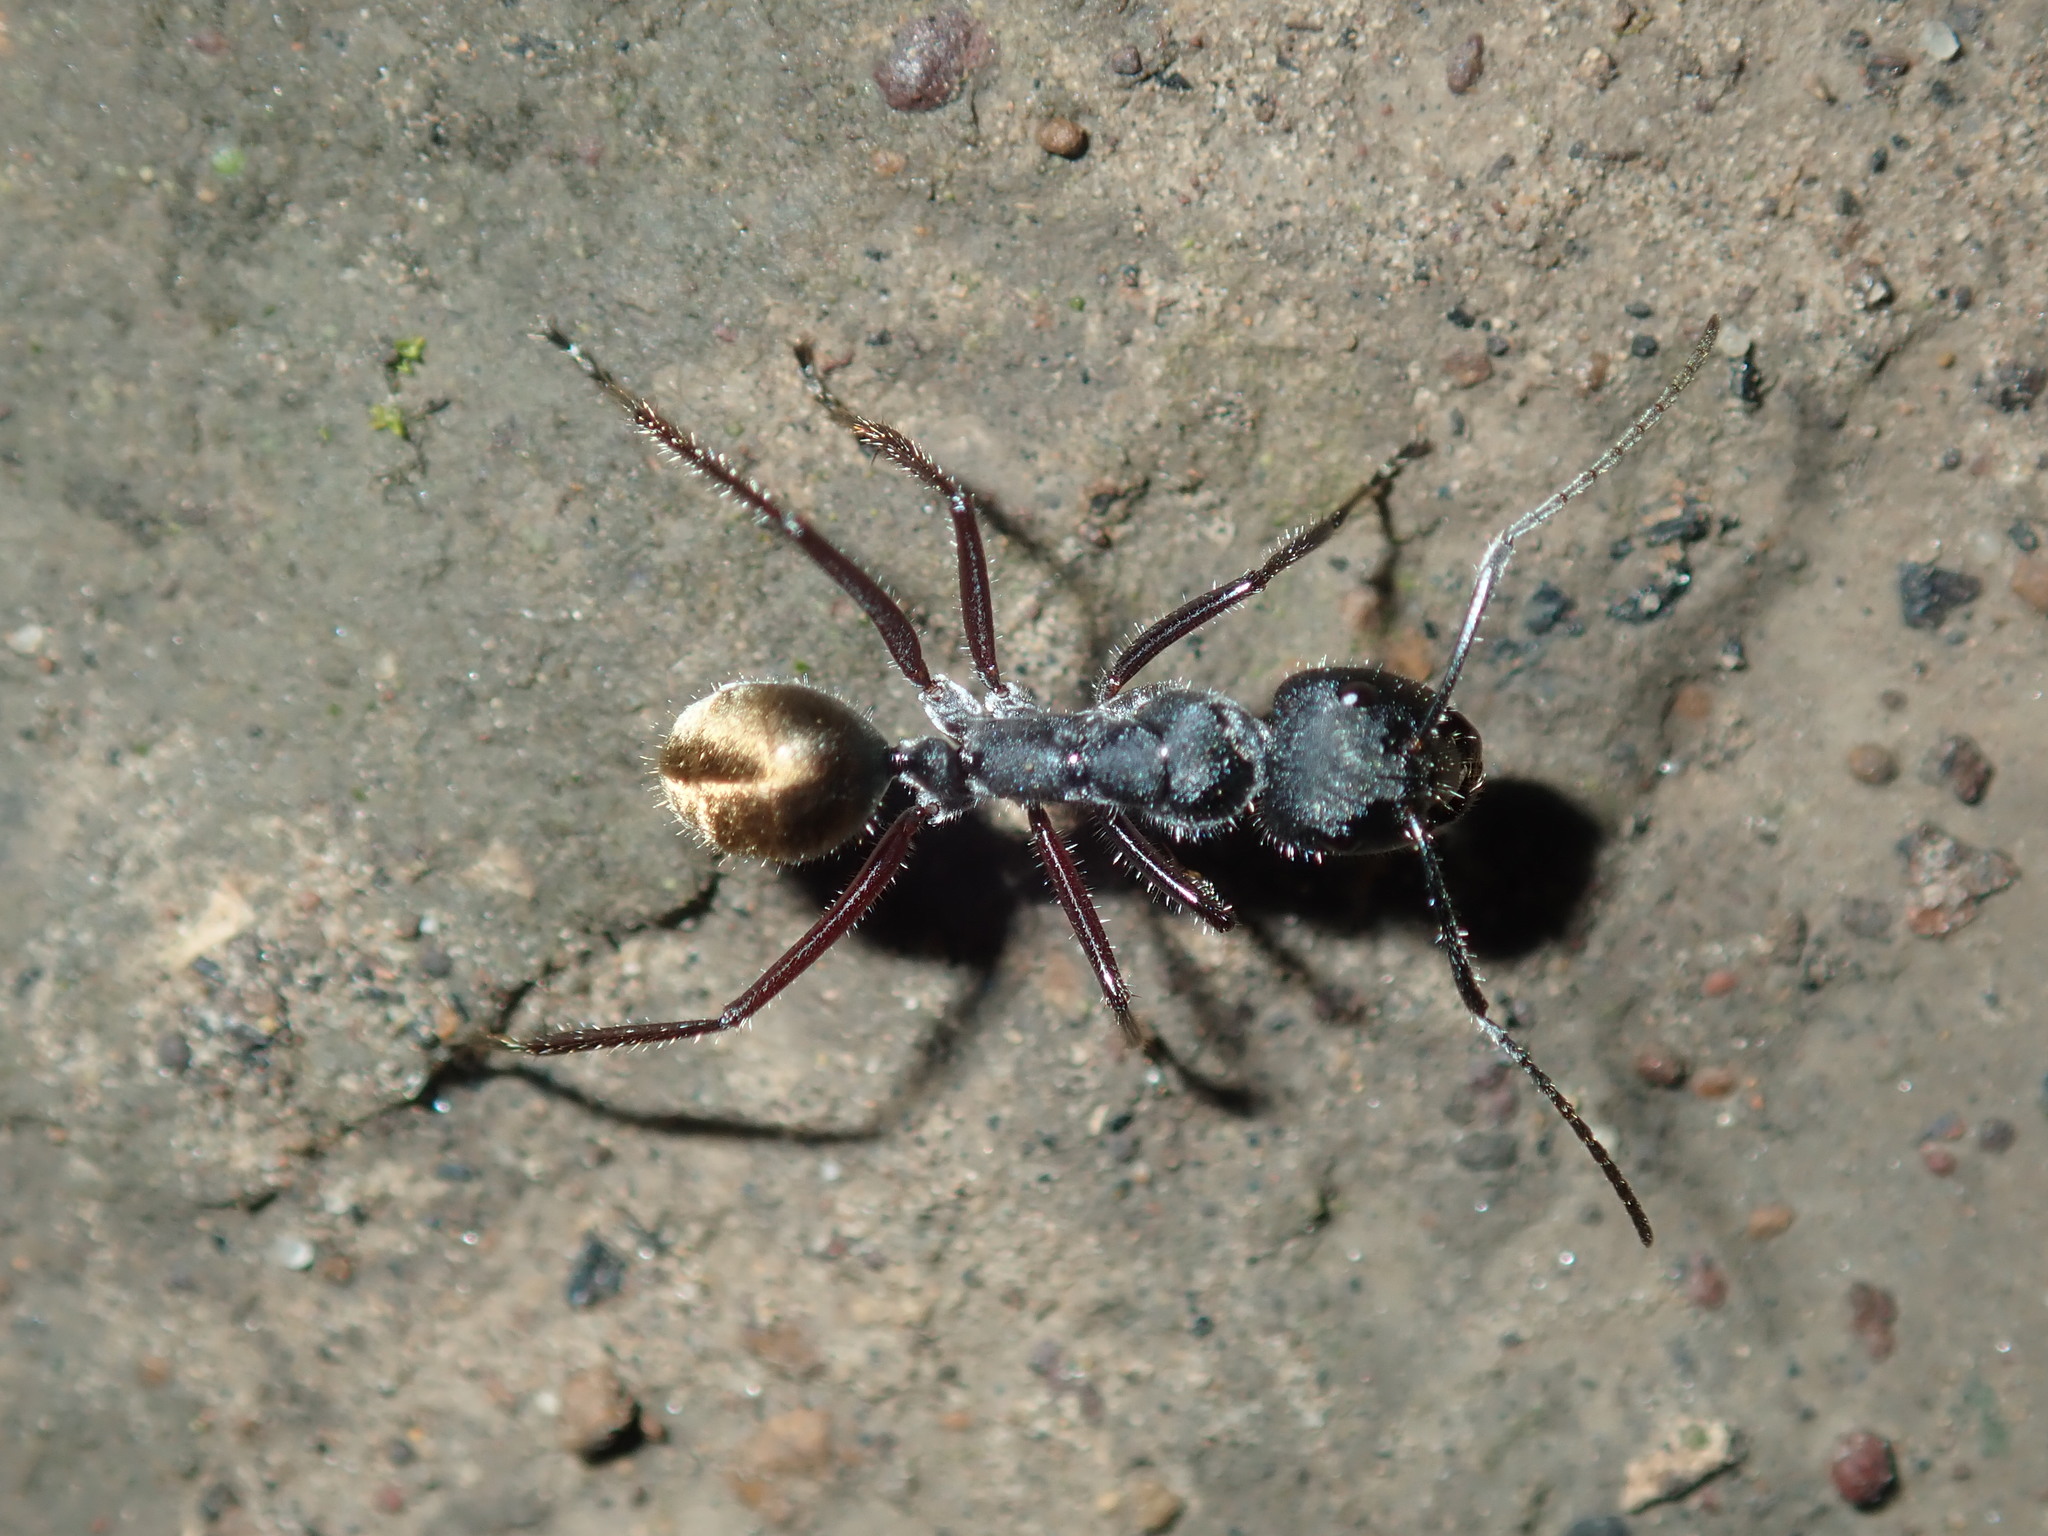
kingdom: Animalia
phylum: Arthropoda
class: Insecta
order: Hymenoptera
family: Formicidae
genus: Camponotus
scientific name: Camponotus suffusus
